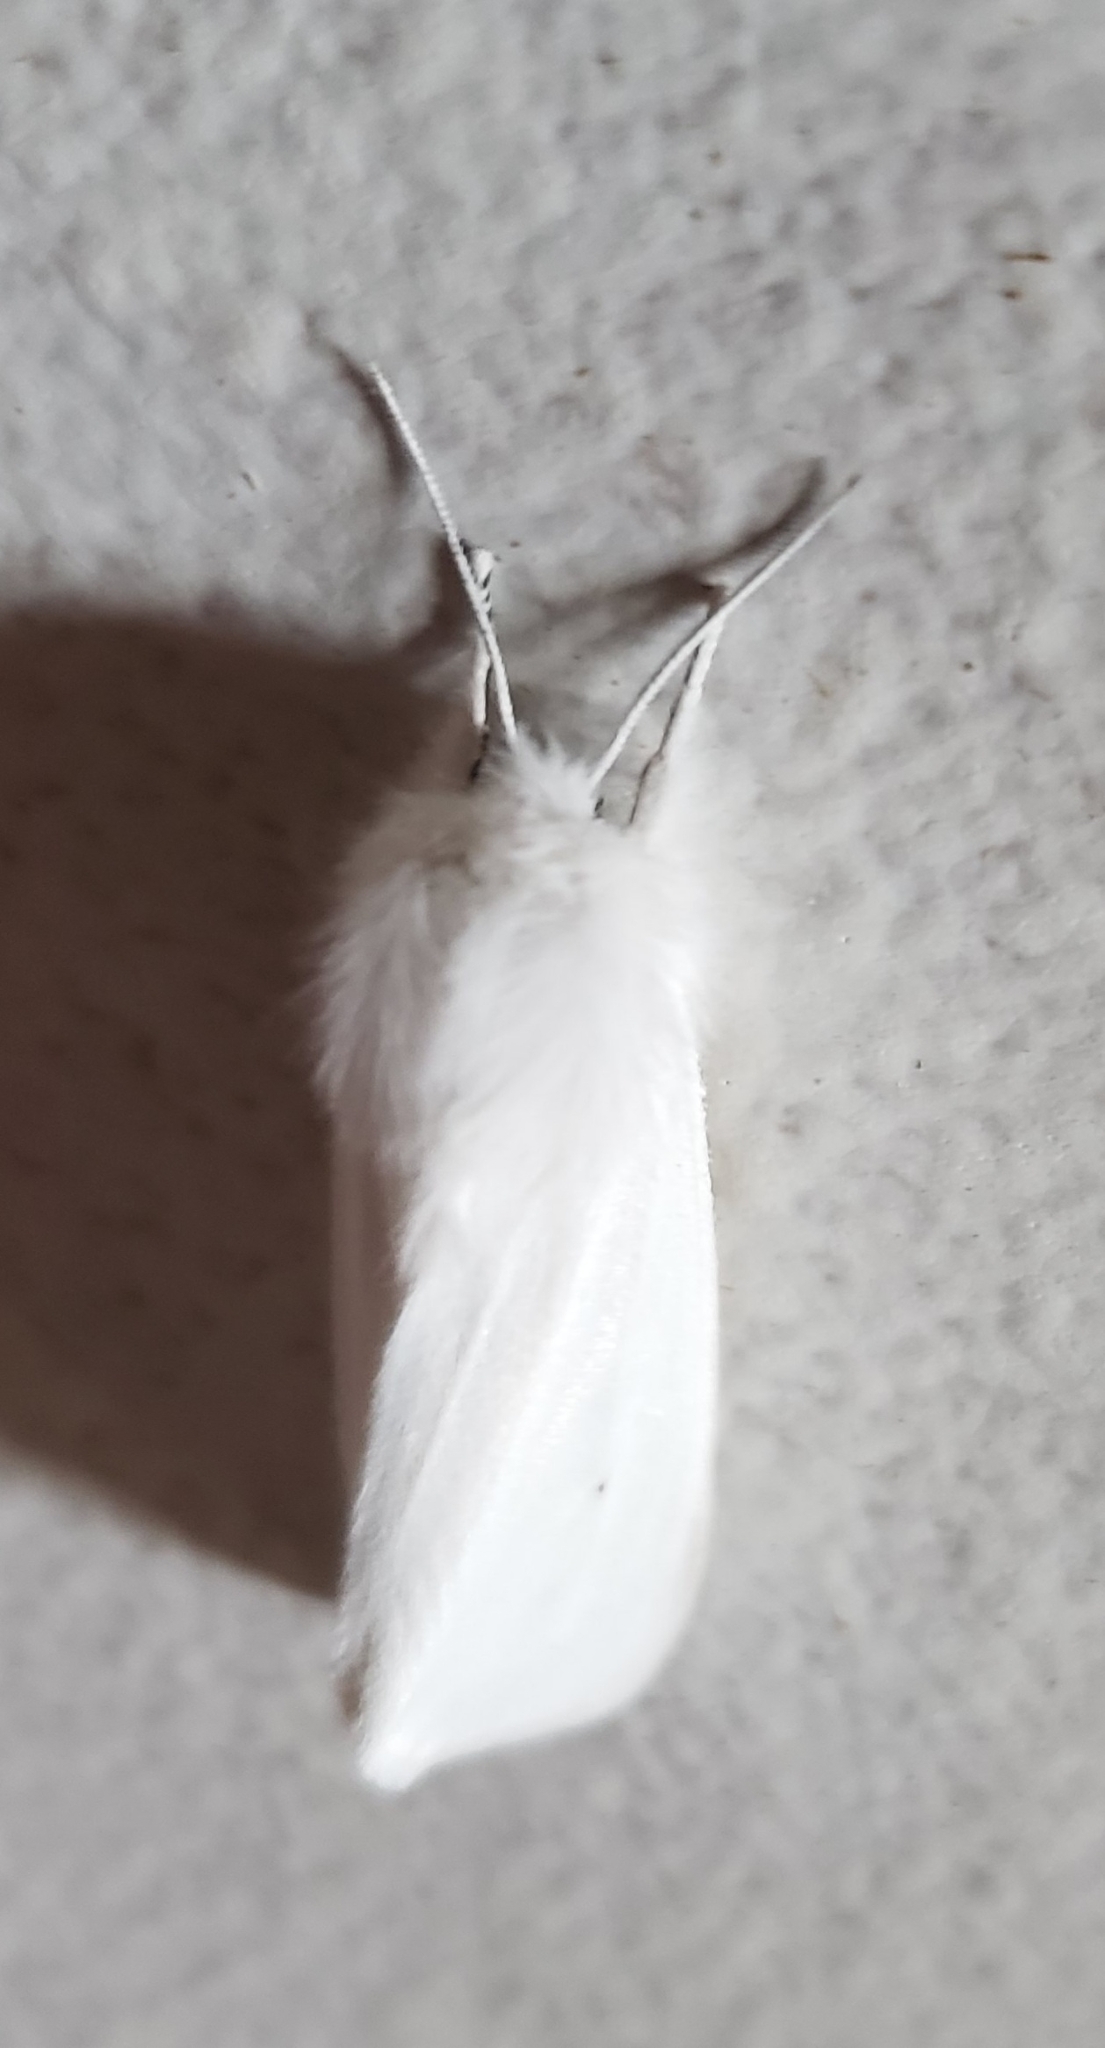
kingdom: Animalia
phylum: Arthropoda
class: Insecta
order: Lepidoptera
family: Erebidae
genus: Spilosoma
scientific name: Spilosoma virginica
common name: Virginia tiger moth
